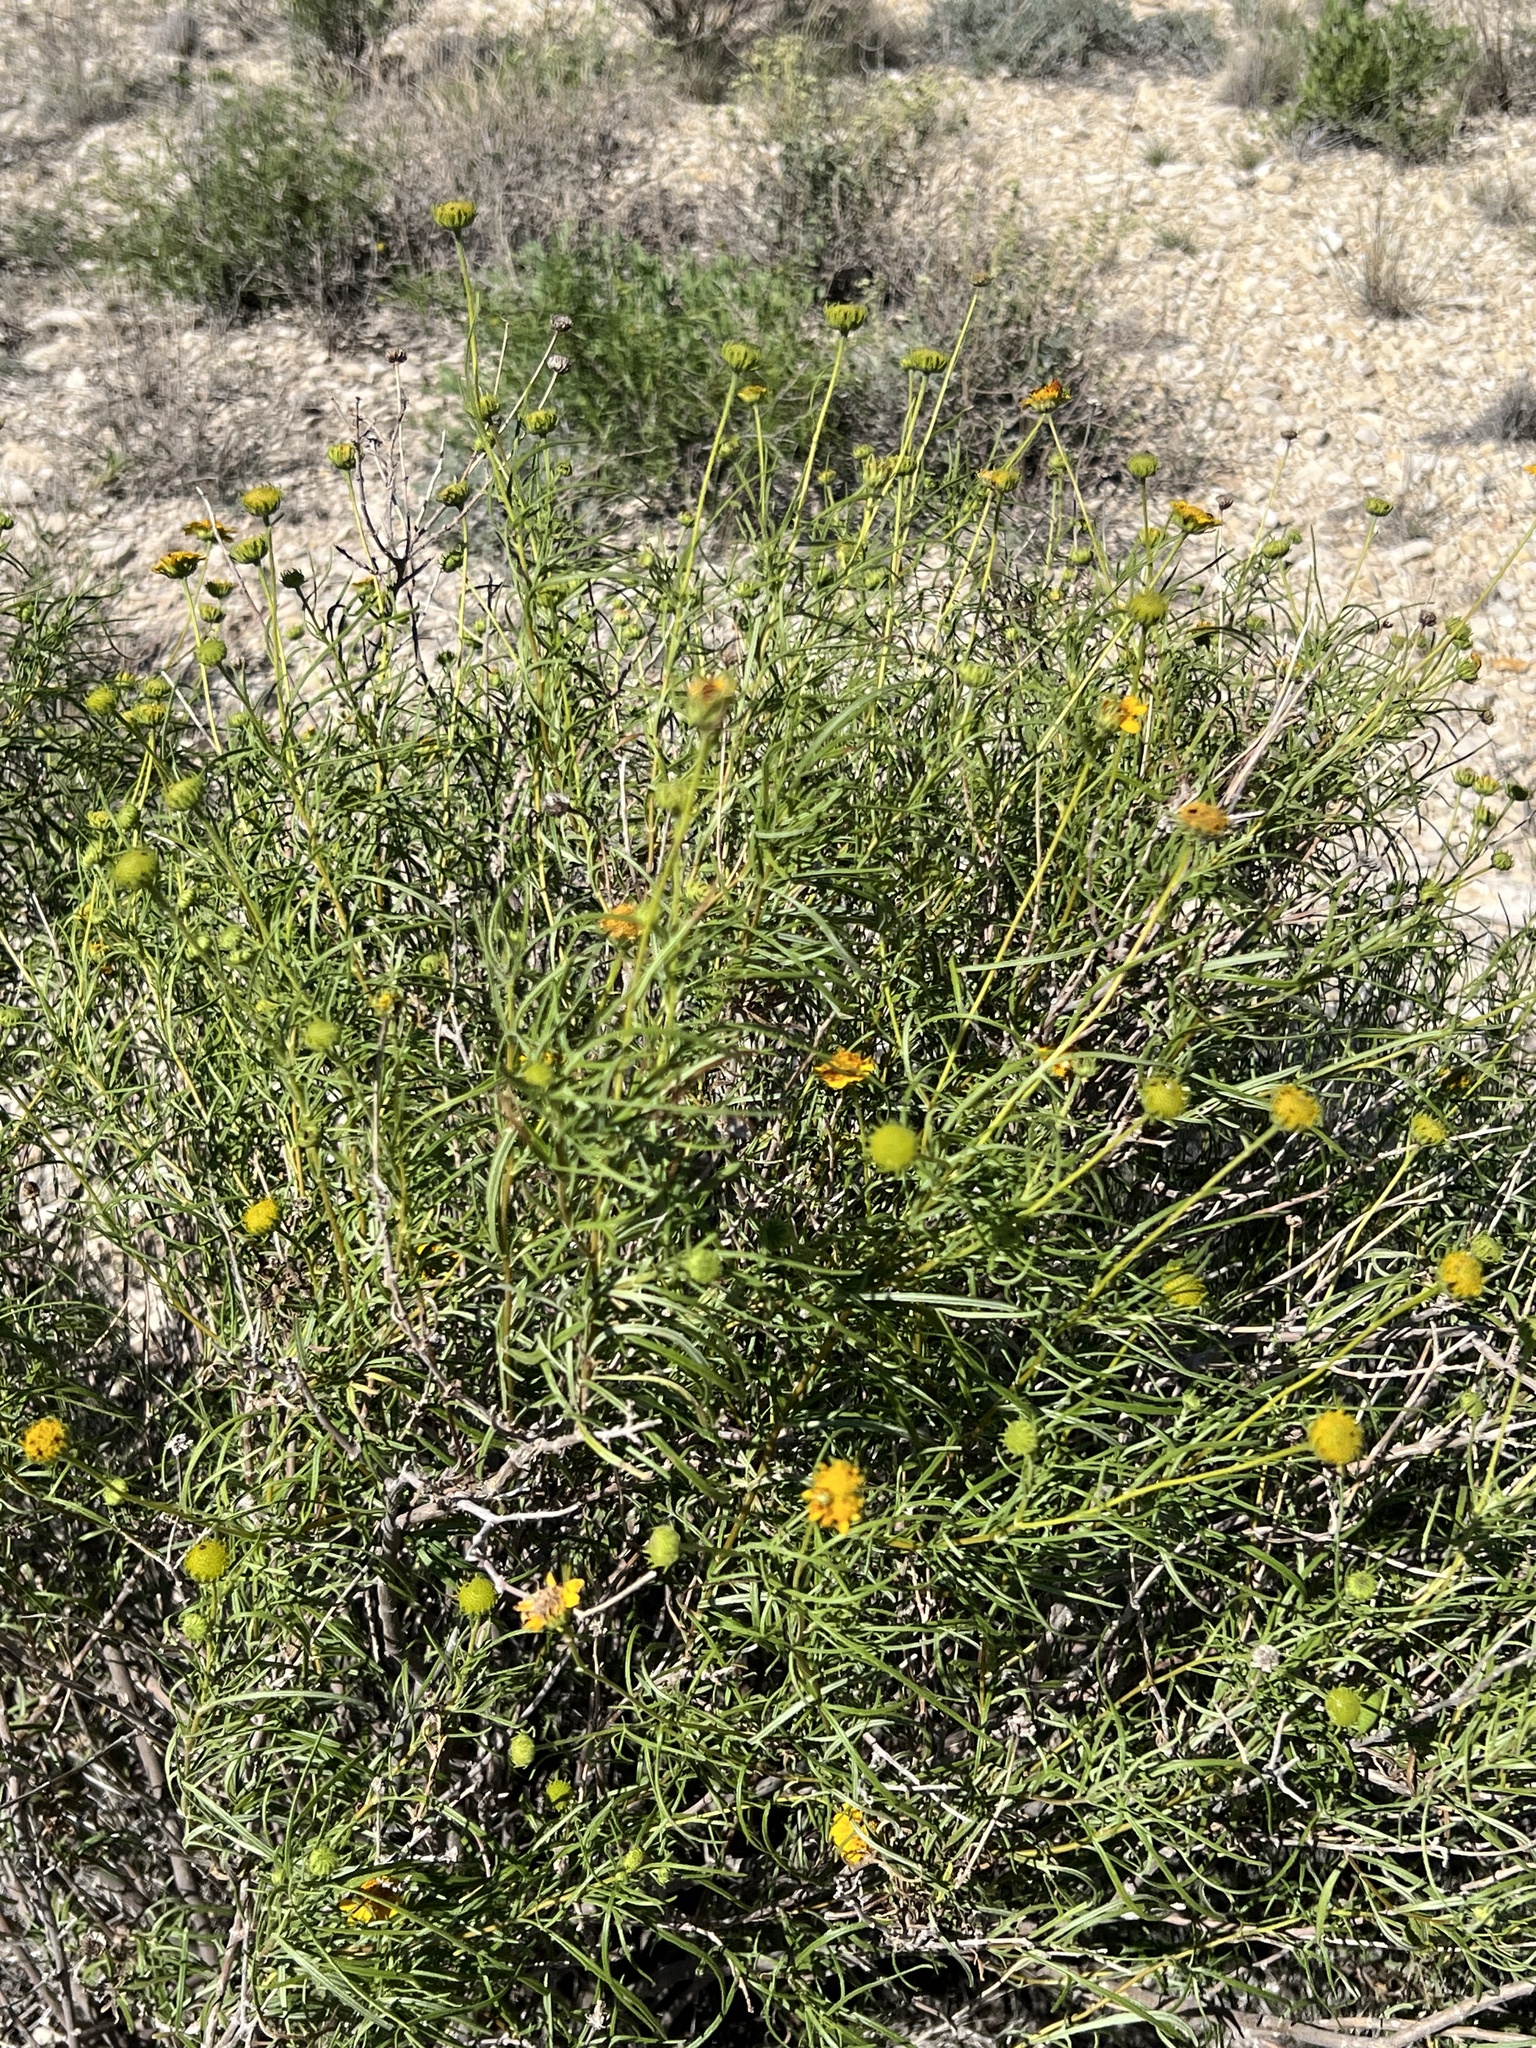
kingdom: Plantae
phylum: Tracheophyta
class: Magnoliopsida
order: Asterales
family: Asteraceae
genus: Sidneya
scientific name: Sidneya tenuifolia
